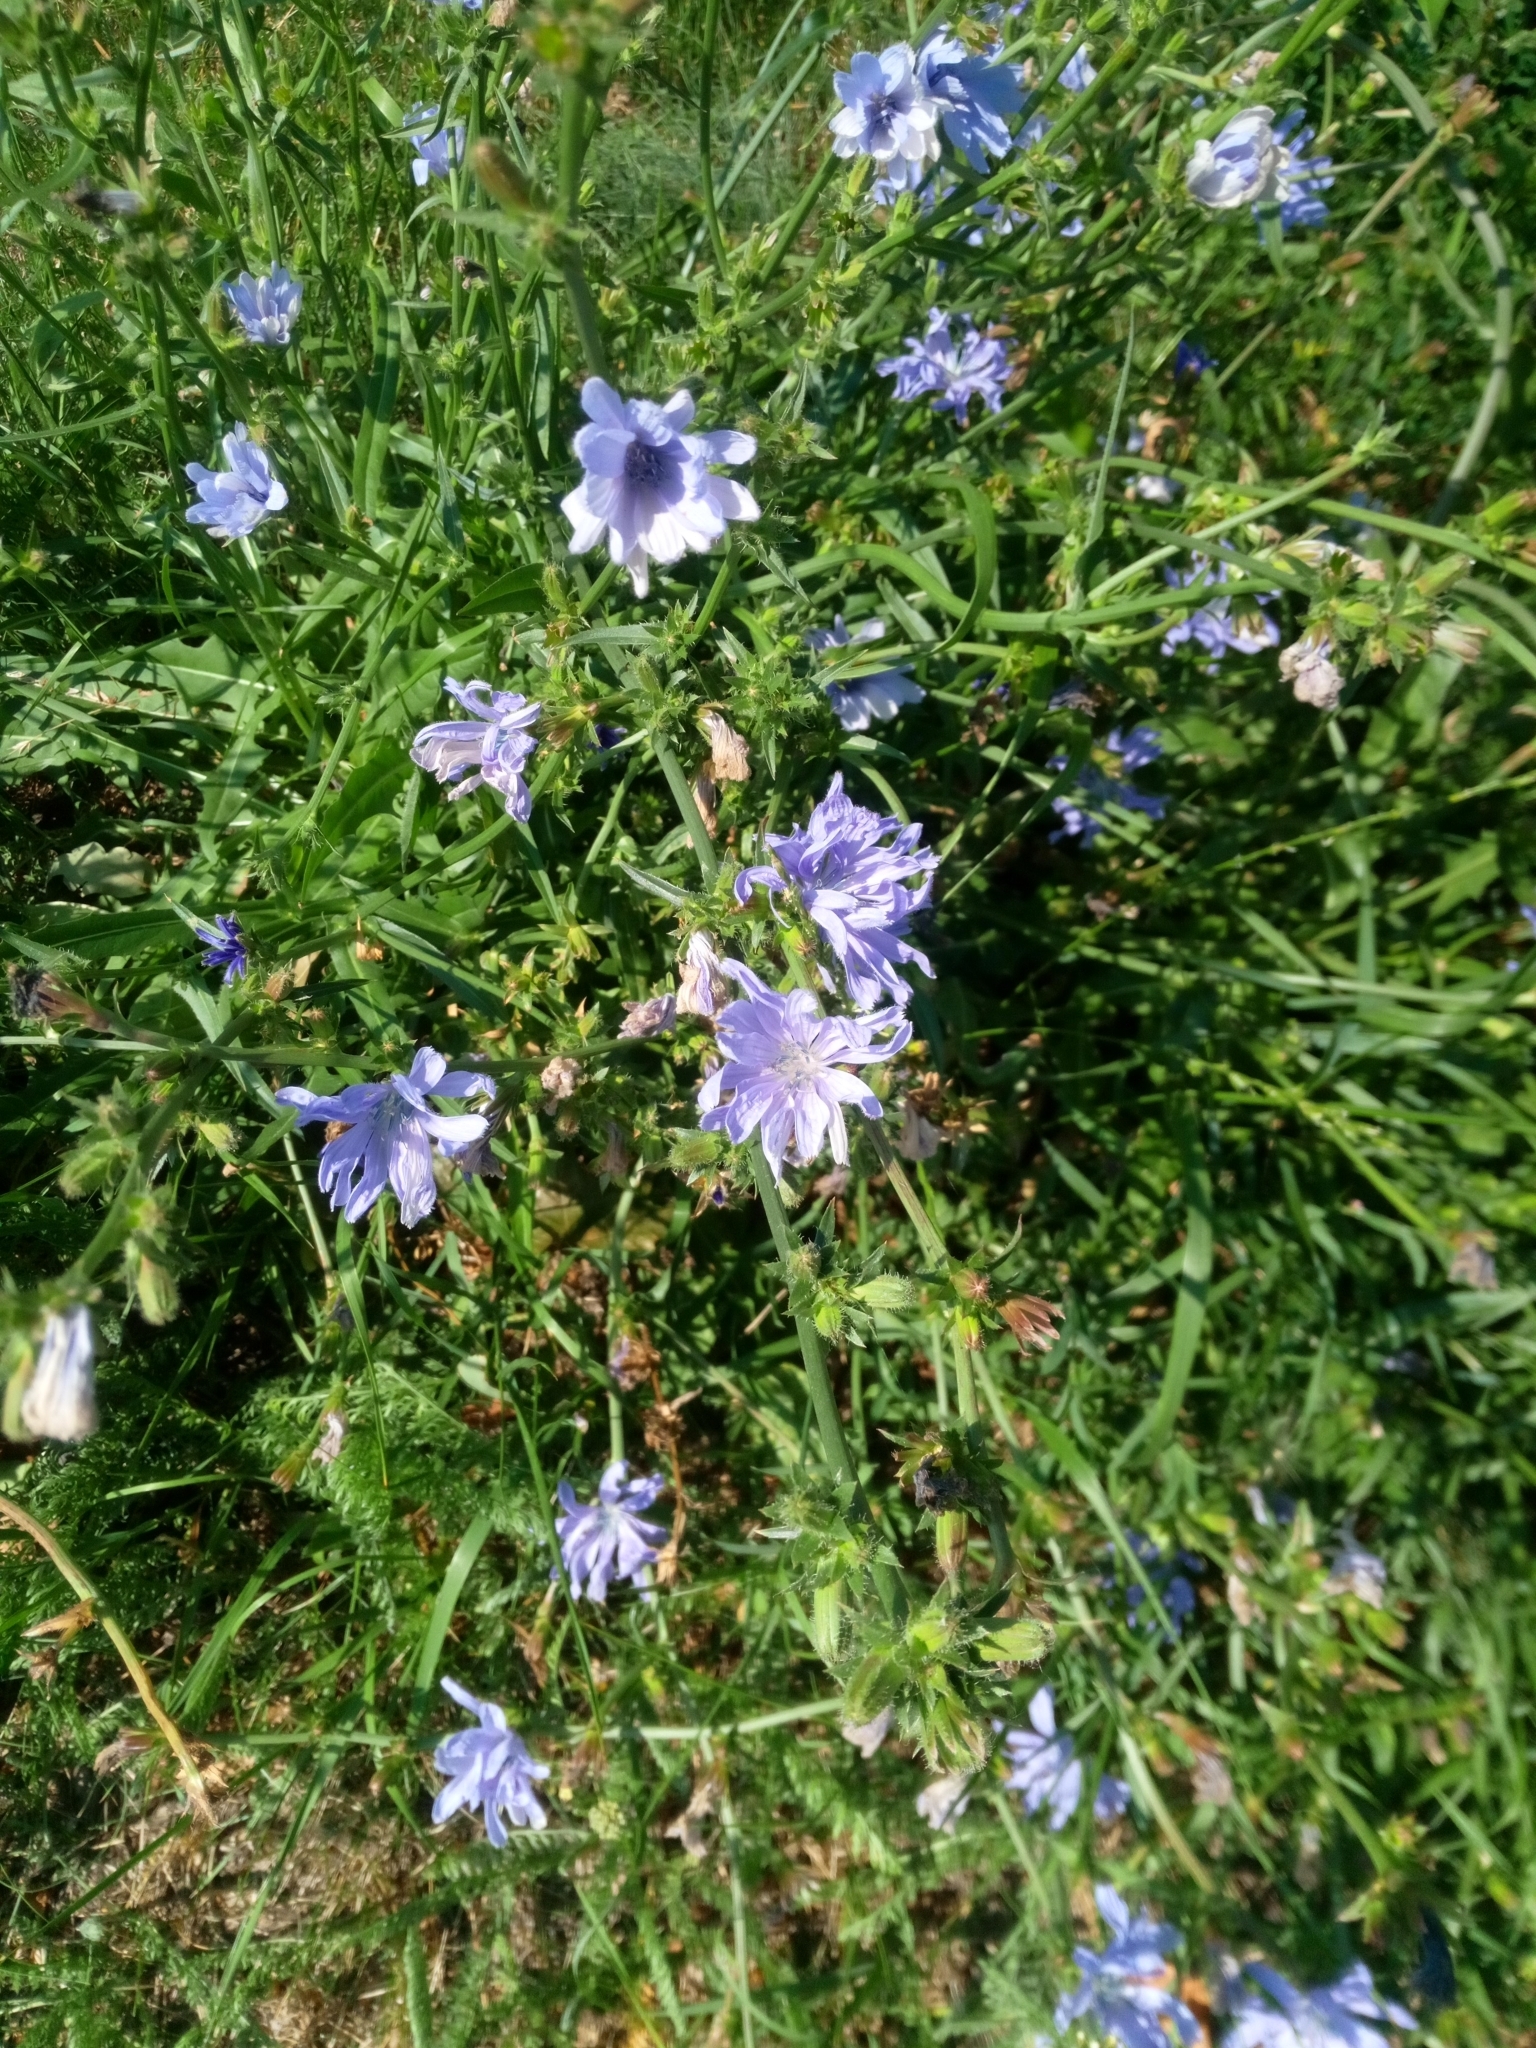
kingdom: Plantae
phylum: Tracheophyta
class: Magnoliopsida
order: Asterales
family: Asteraceae
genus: Cichorium
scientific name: Cichorium intybus
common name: Chicory
